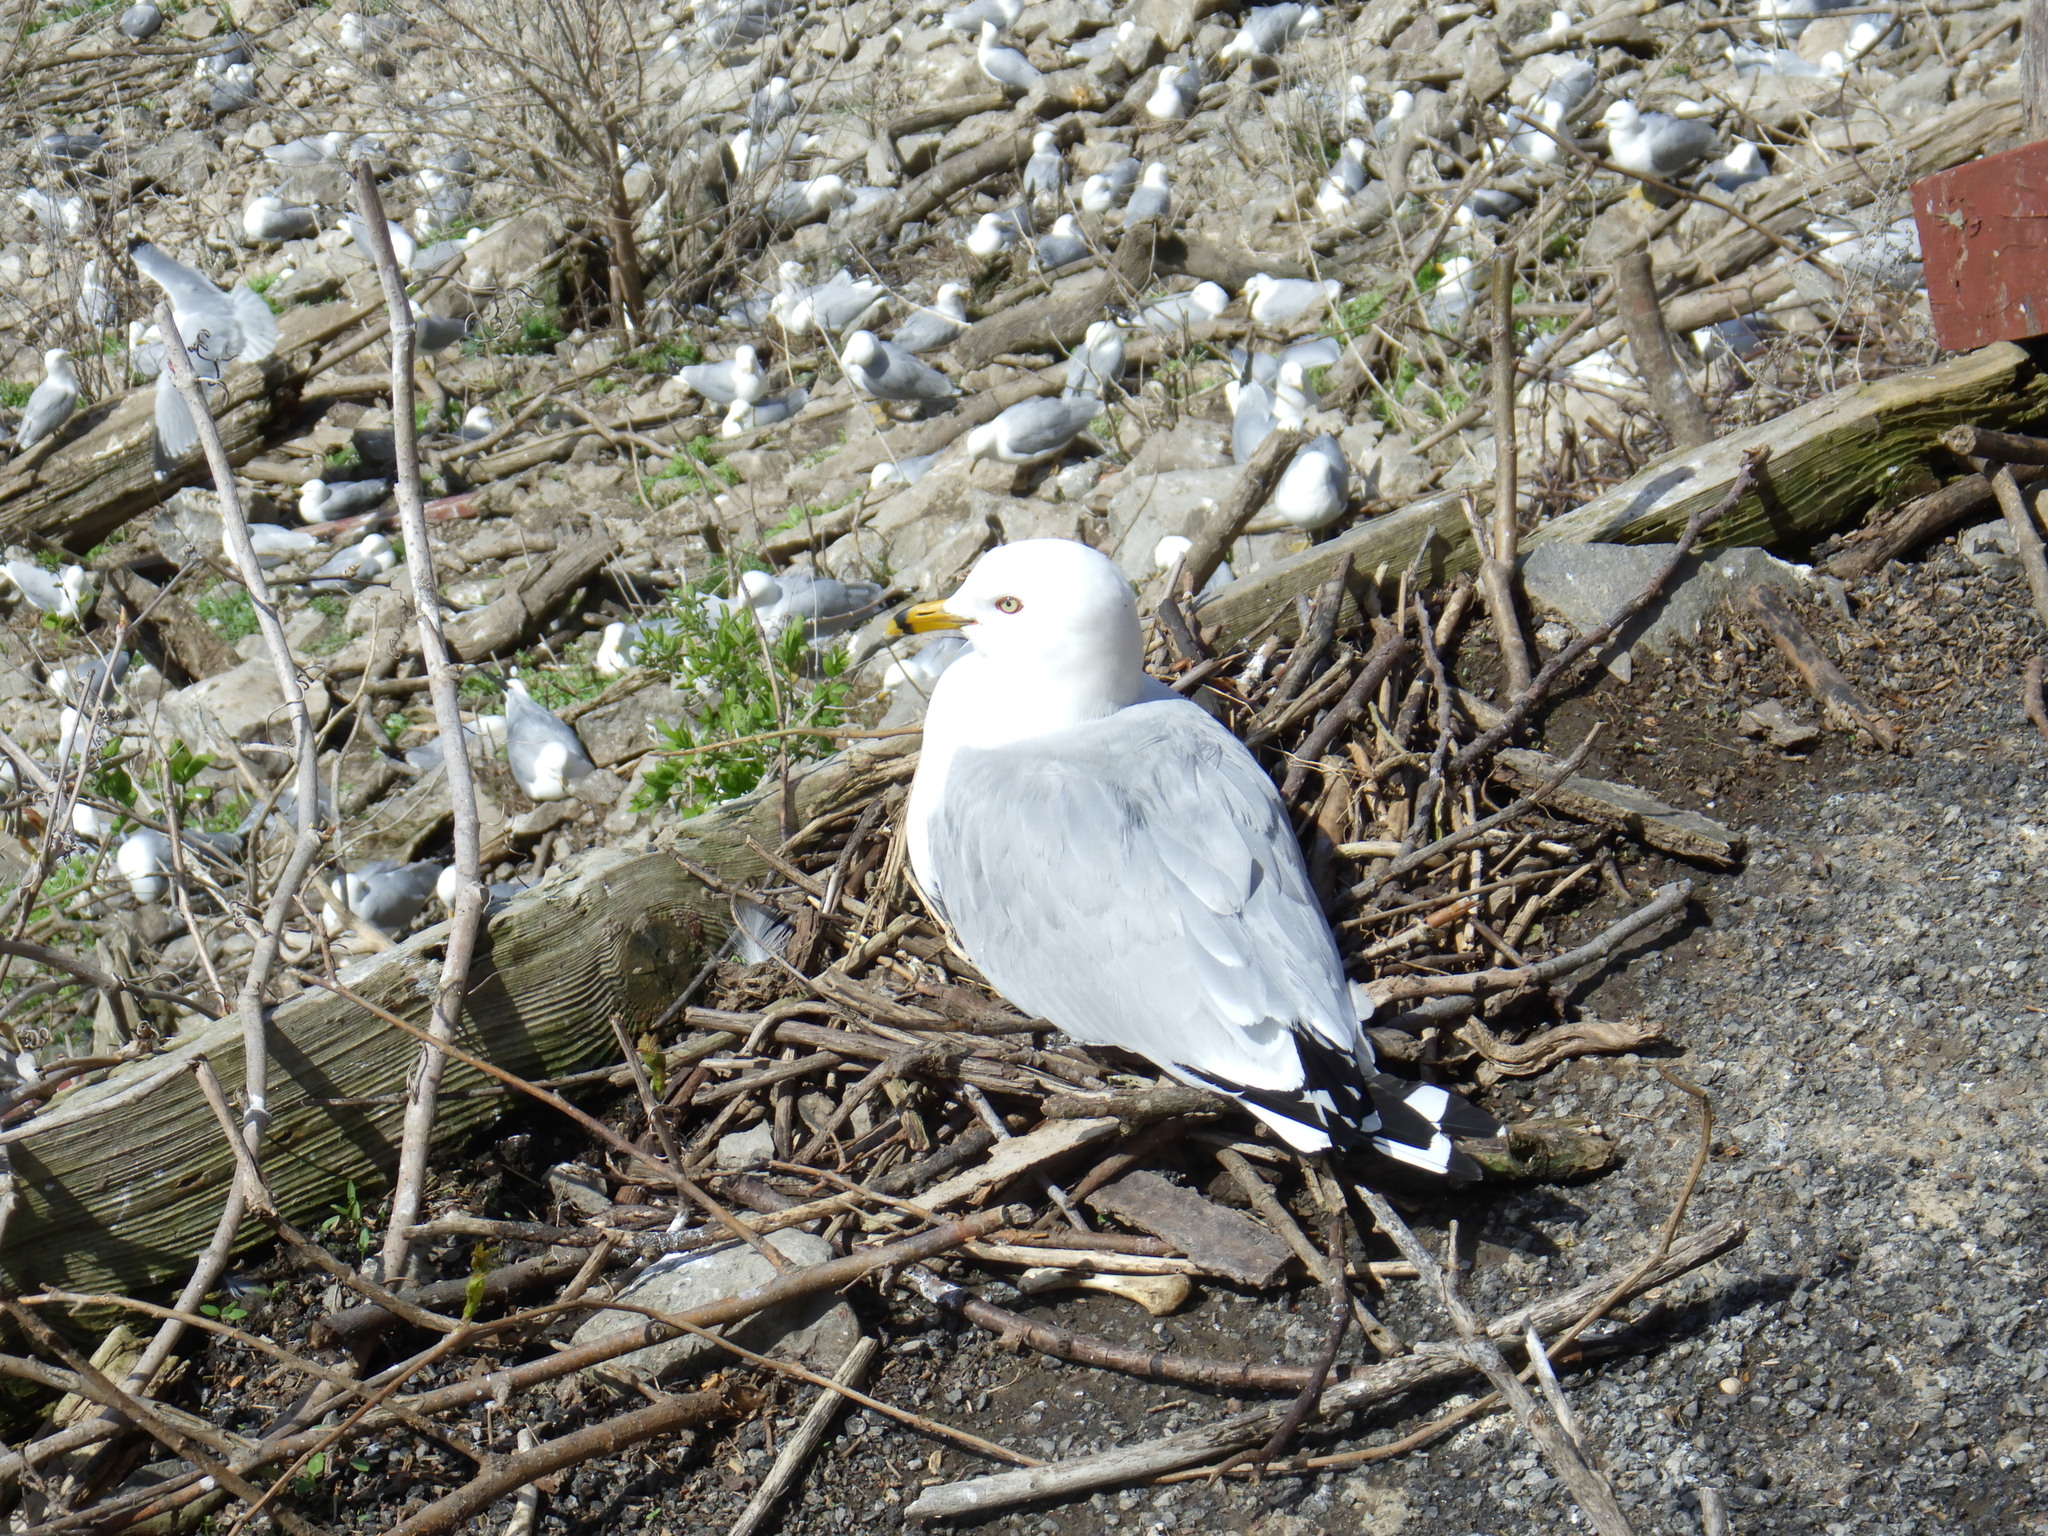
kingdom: Animalia
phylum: Chordata
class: Aves
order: Charadriiformes
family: Laridae
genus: Larus
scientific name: Larus delawarensis
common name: Ring-billed gull
